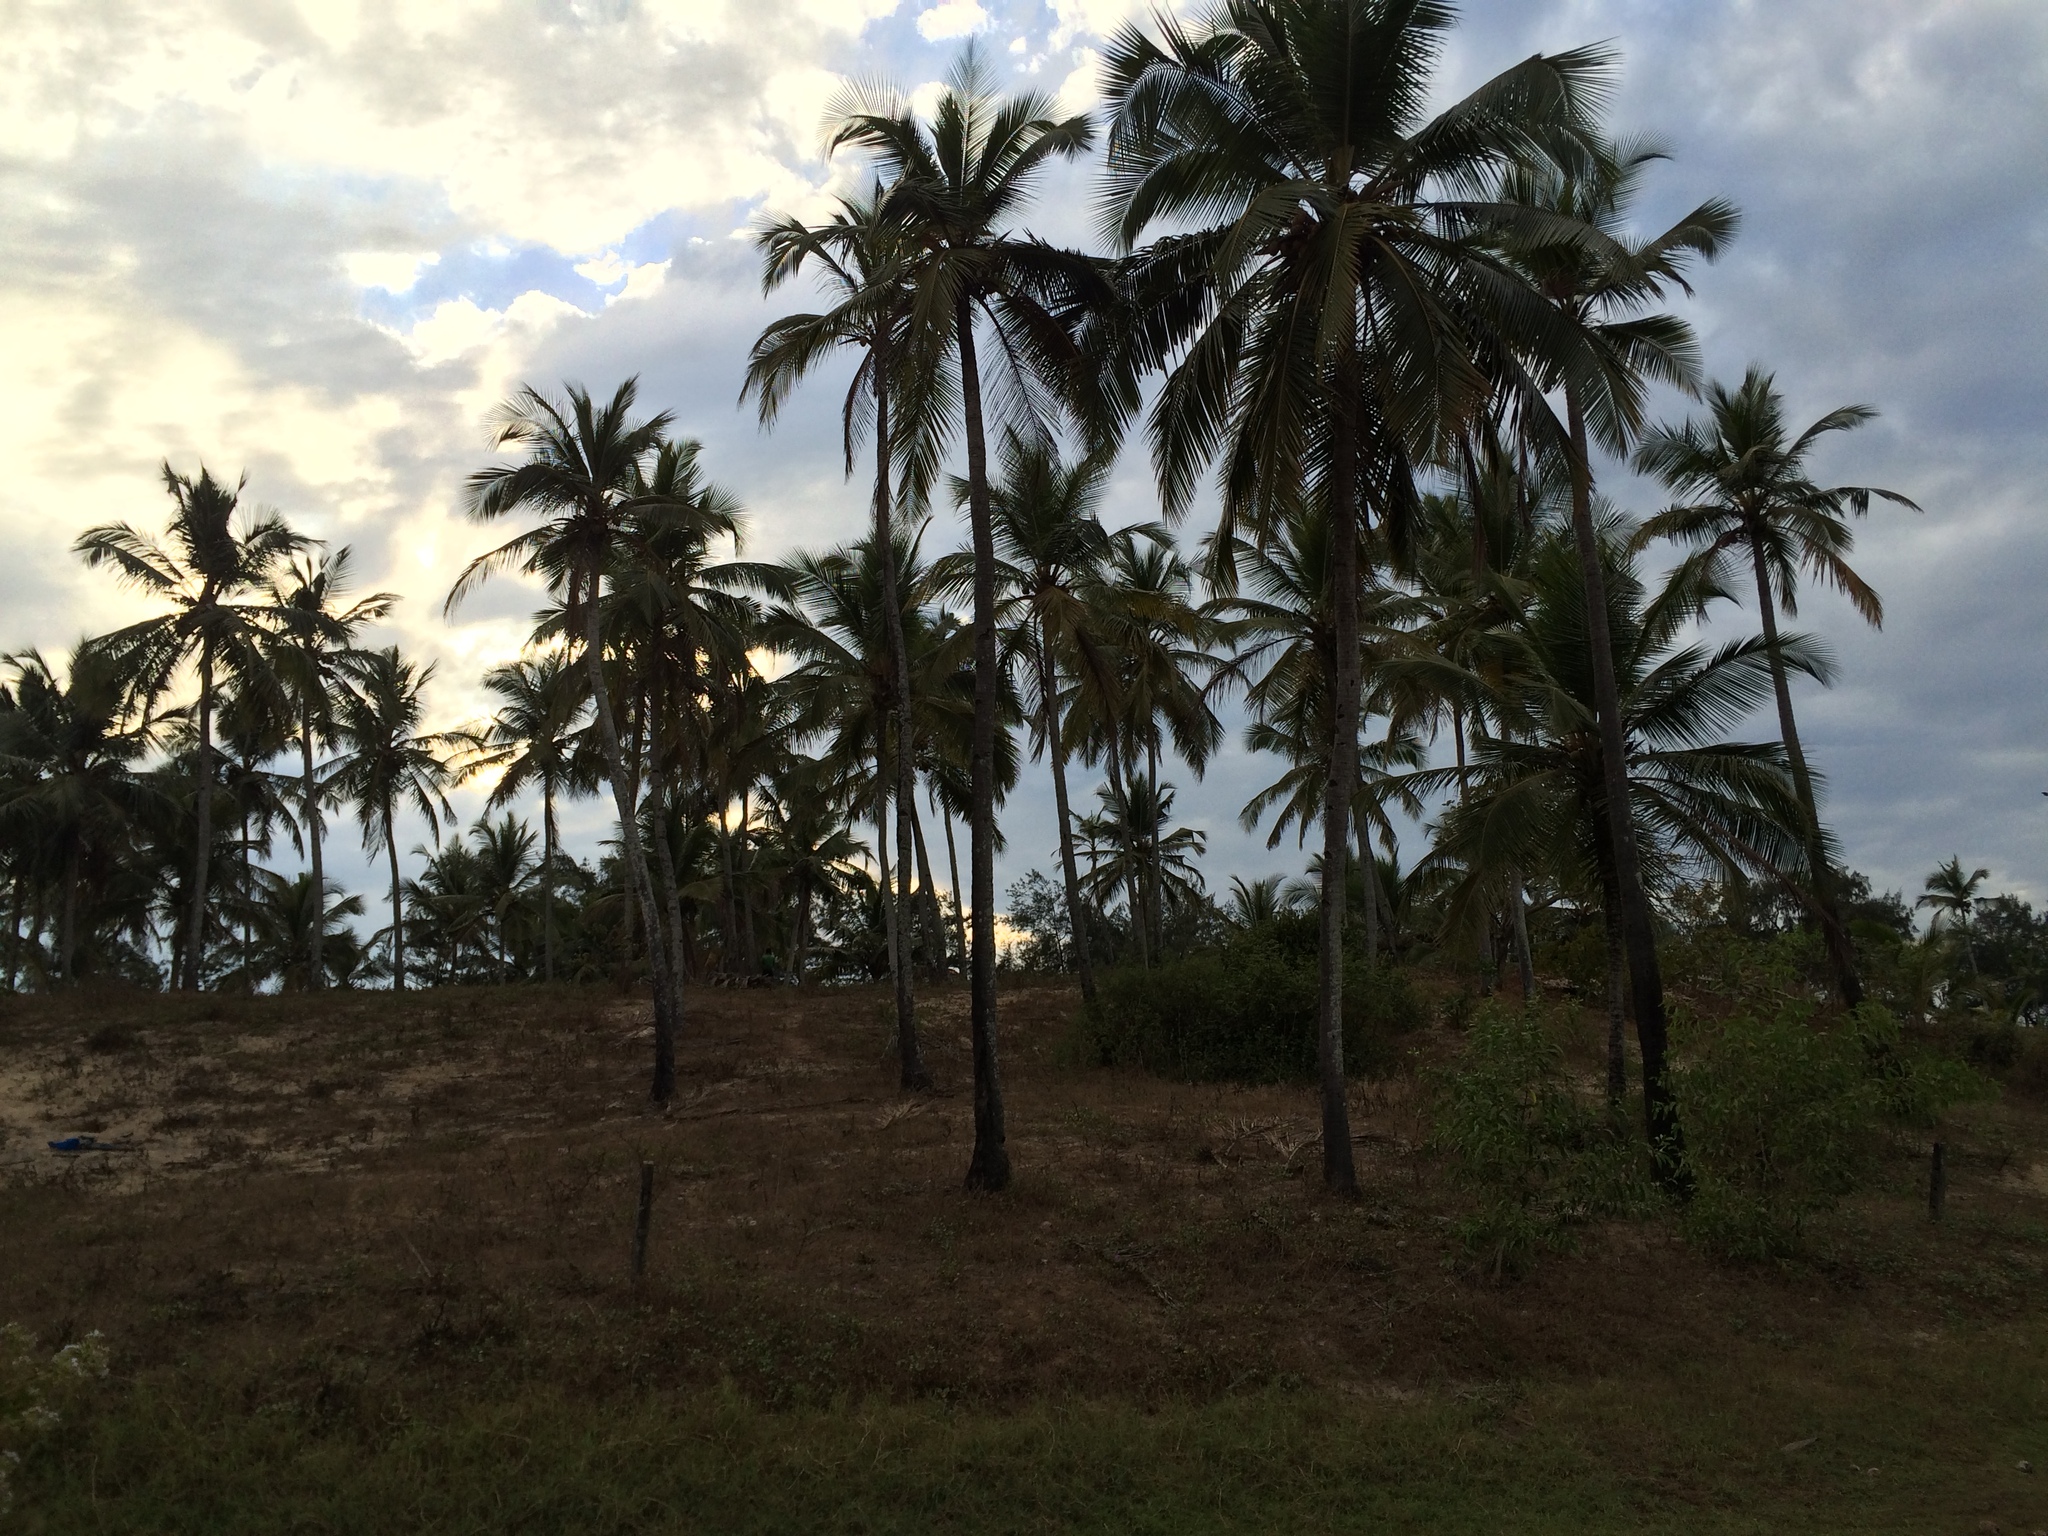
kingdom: Plantae
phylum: Tracheophyta
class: Liliopsida
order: Arecales
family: Arecaceae
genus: Cocos
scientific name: Cocos nucifera
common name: Coconut palm
